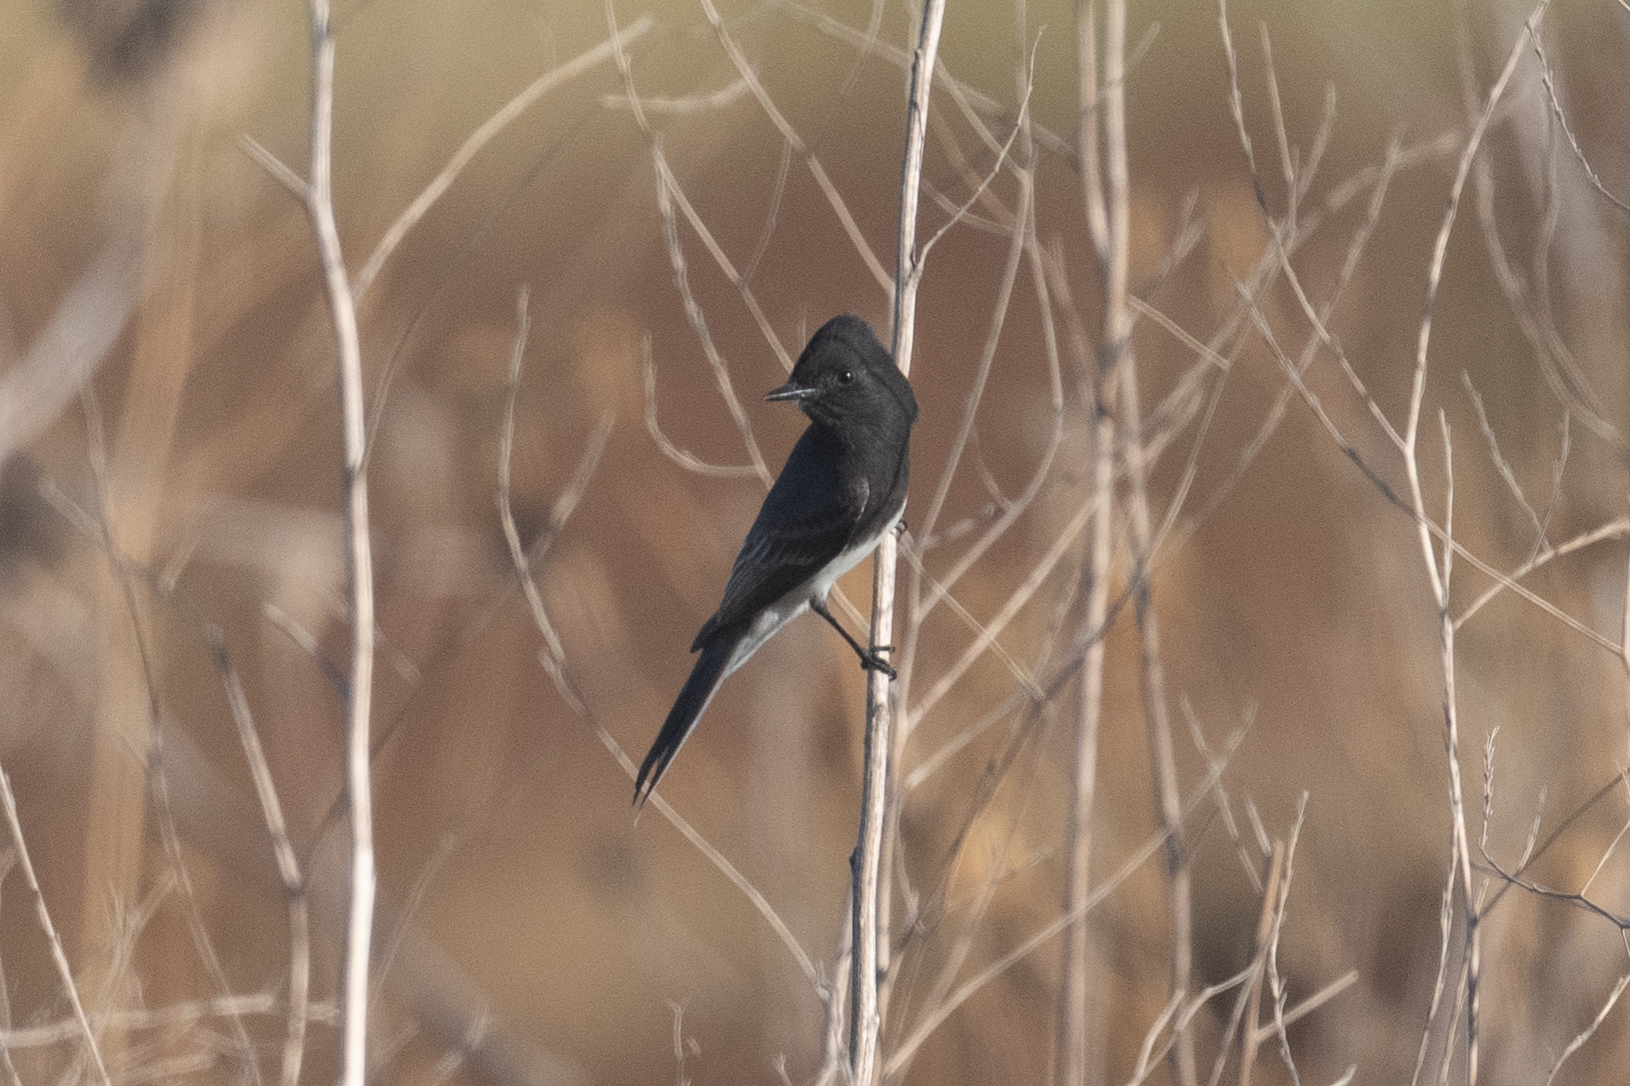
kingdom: Animalia
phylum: Chordata
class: Aves
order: Passeriformes
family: Tyrannidae
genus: Sayornis
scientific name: Sayornis nigricans
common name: Black phoebe
